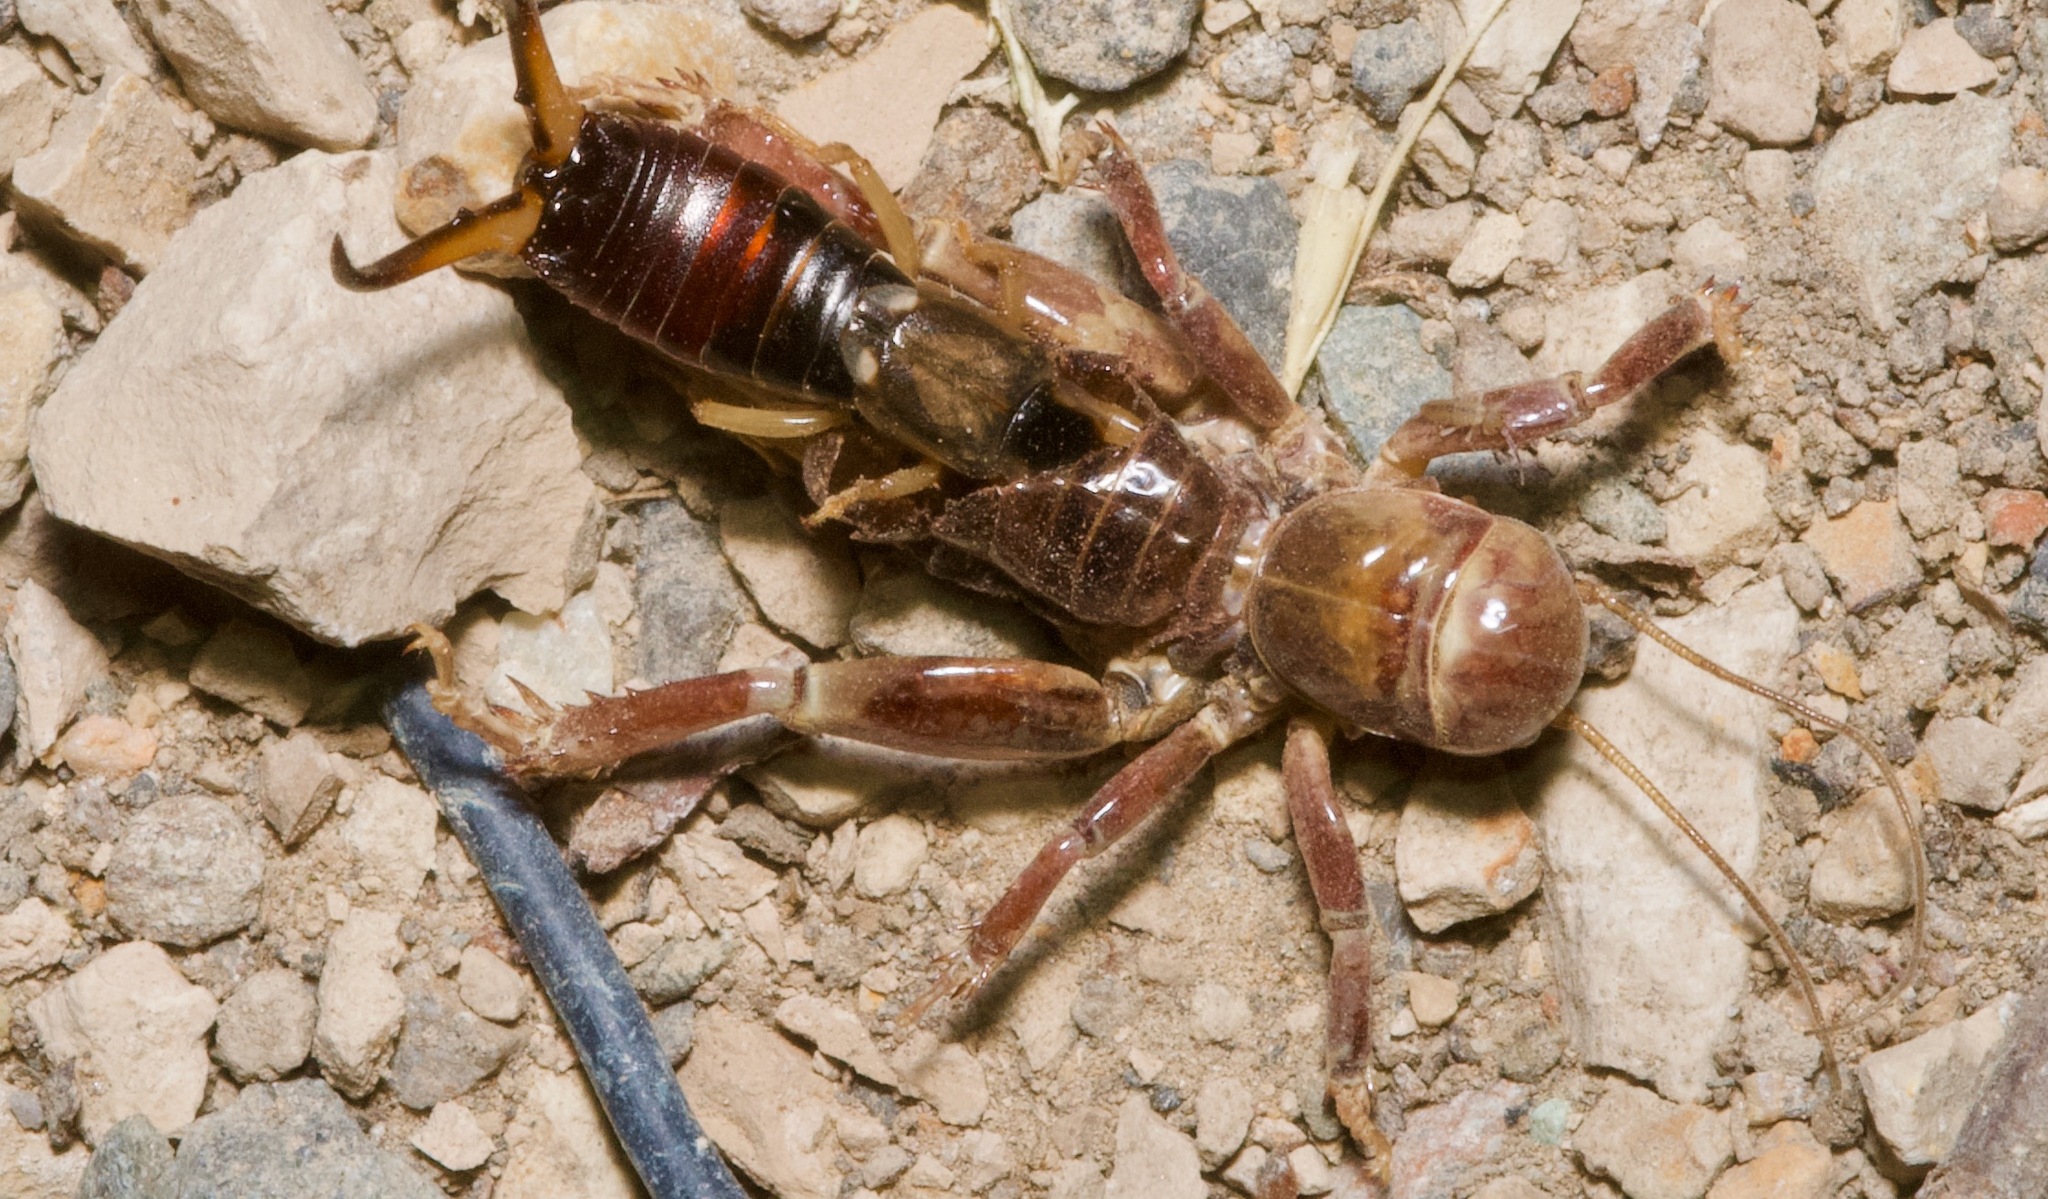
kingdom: Animalia
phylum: Arthropoda
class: Insecta
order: Dermaptera
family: Forficulidae
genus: Forficula
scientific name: Forficula dentata
